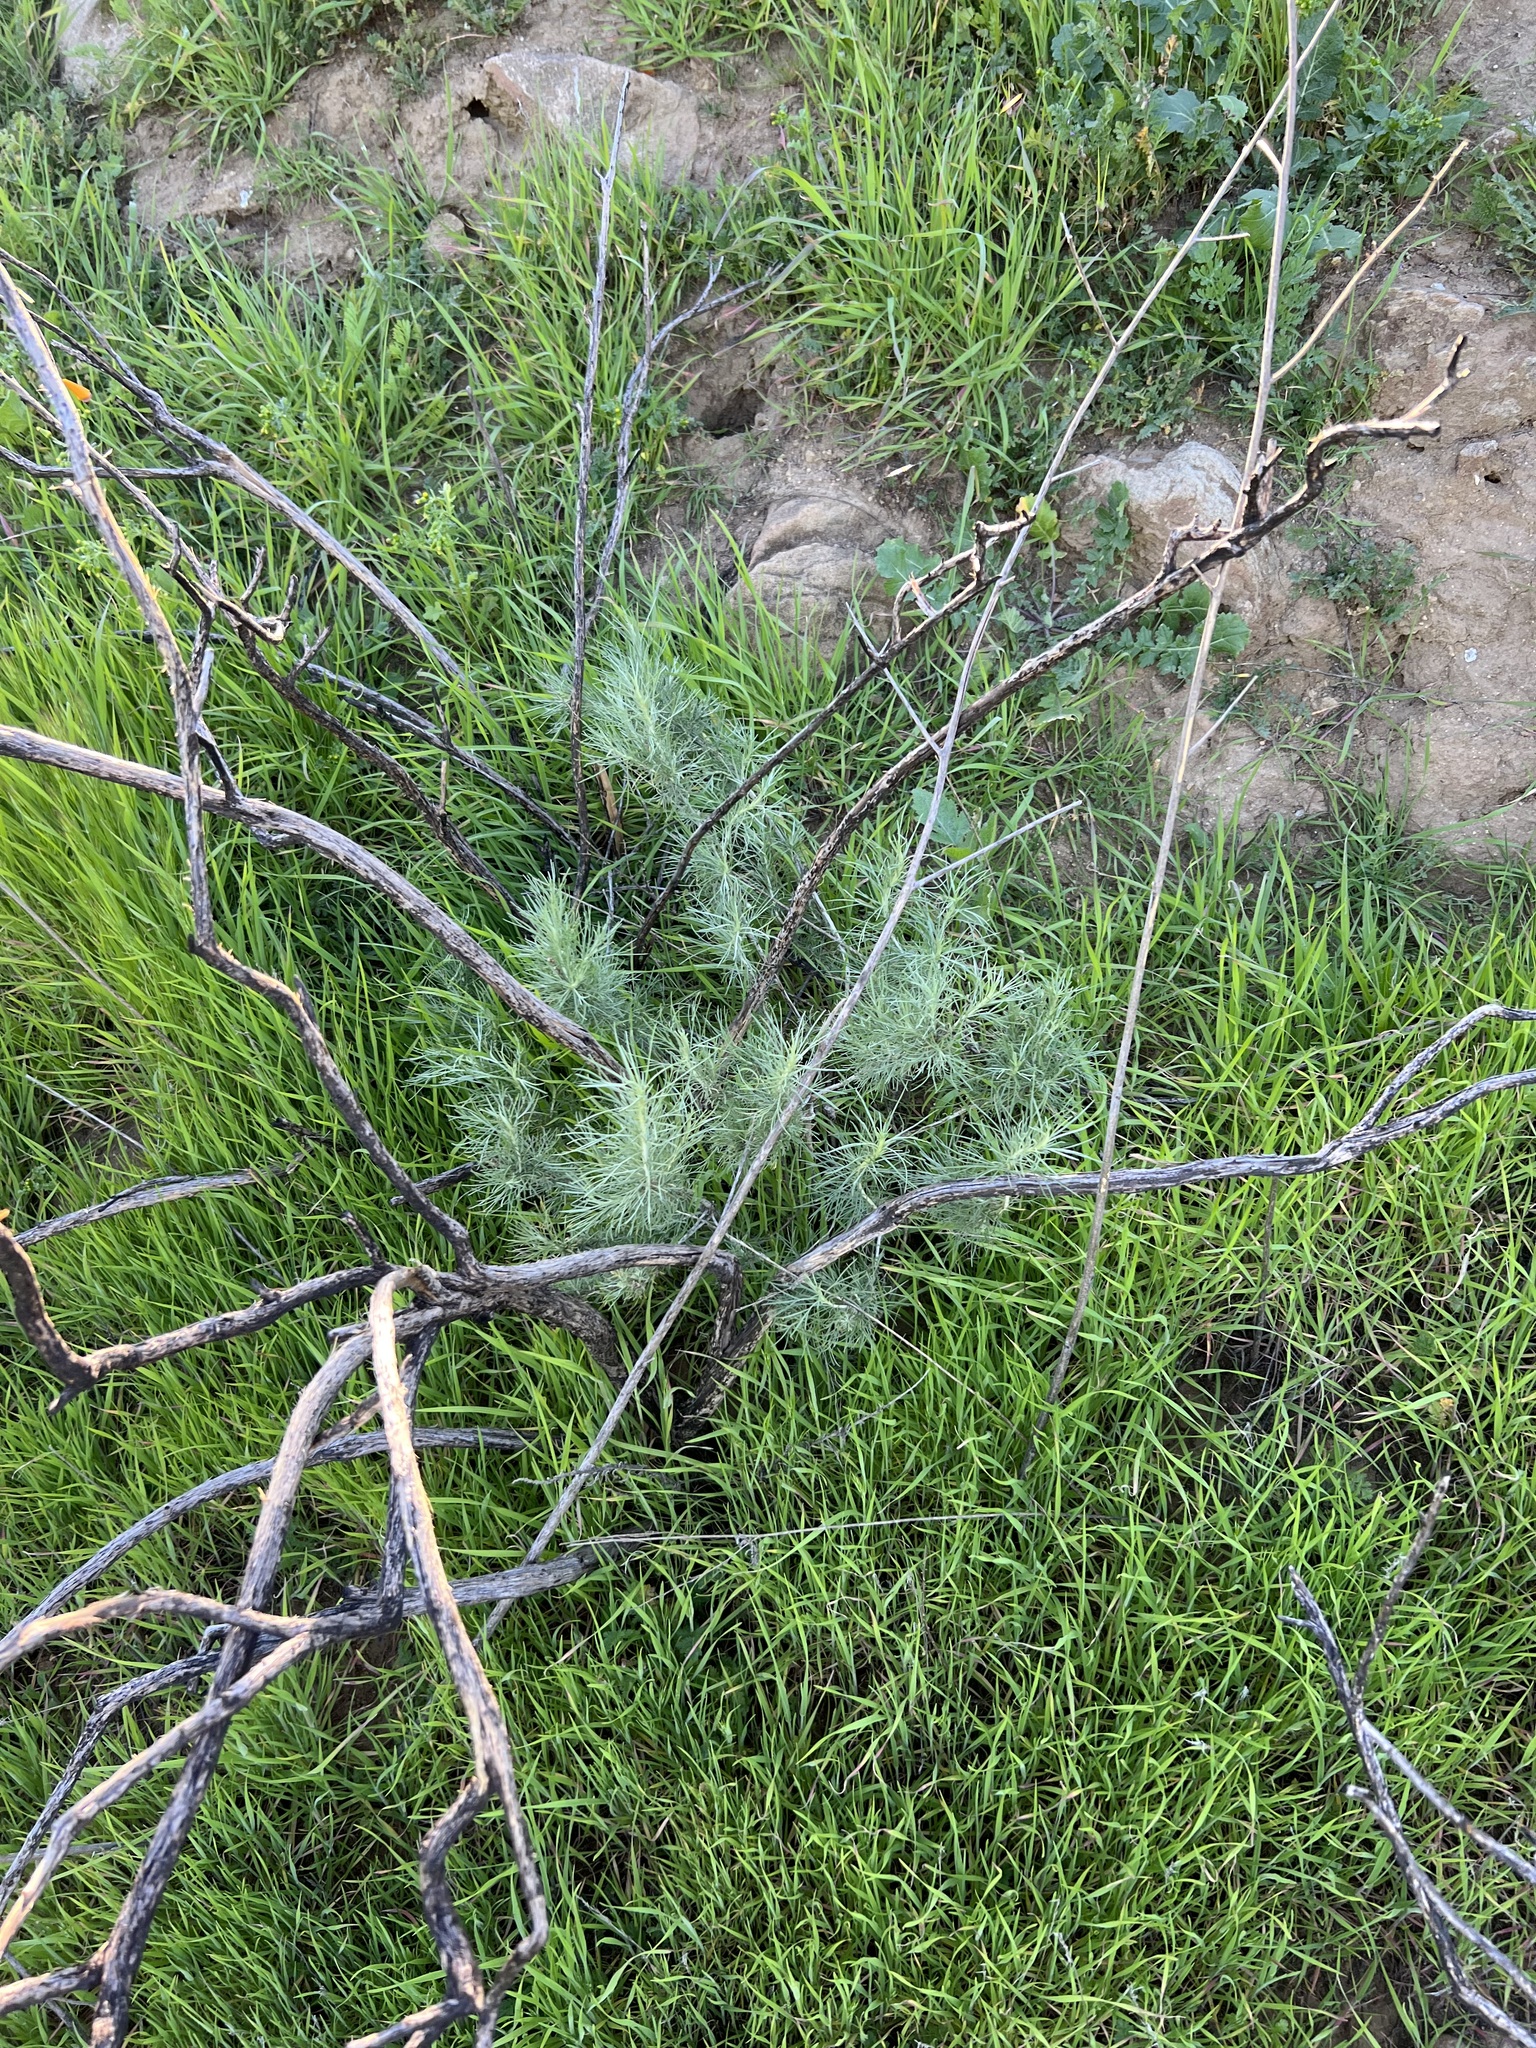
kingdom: Plantae
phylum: Tracheophyta
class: Magnoliopsida
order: Asterales
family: Asteraceae
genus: Artemisia
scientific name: Artemisia californica
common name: California sagebrush
